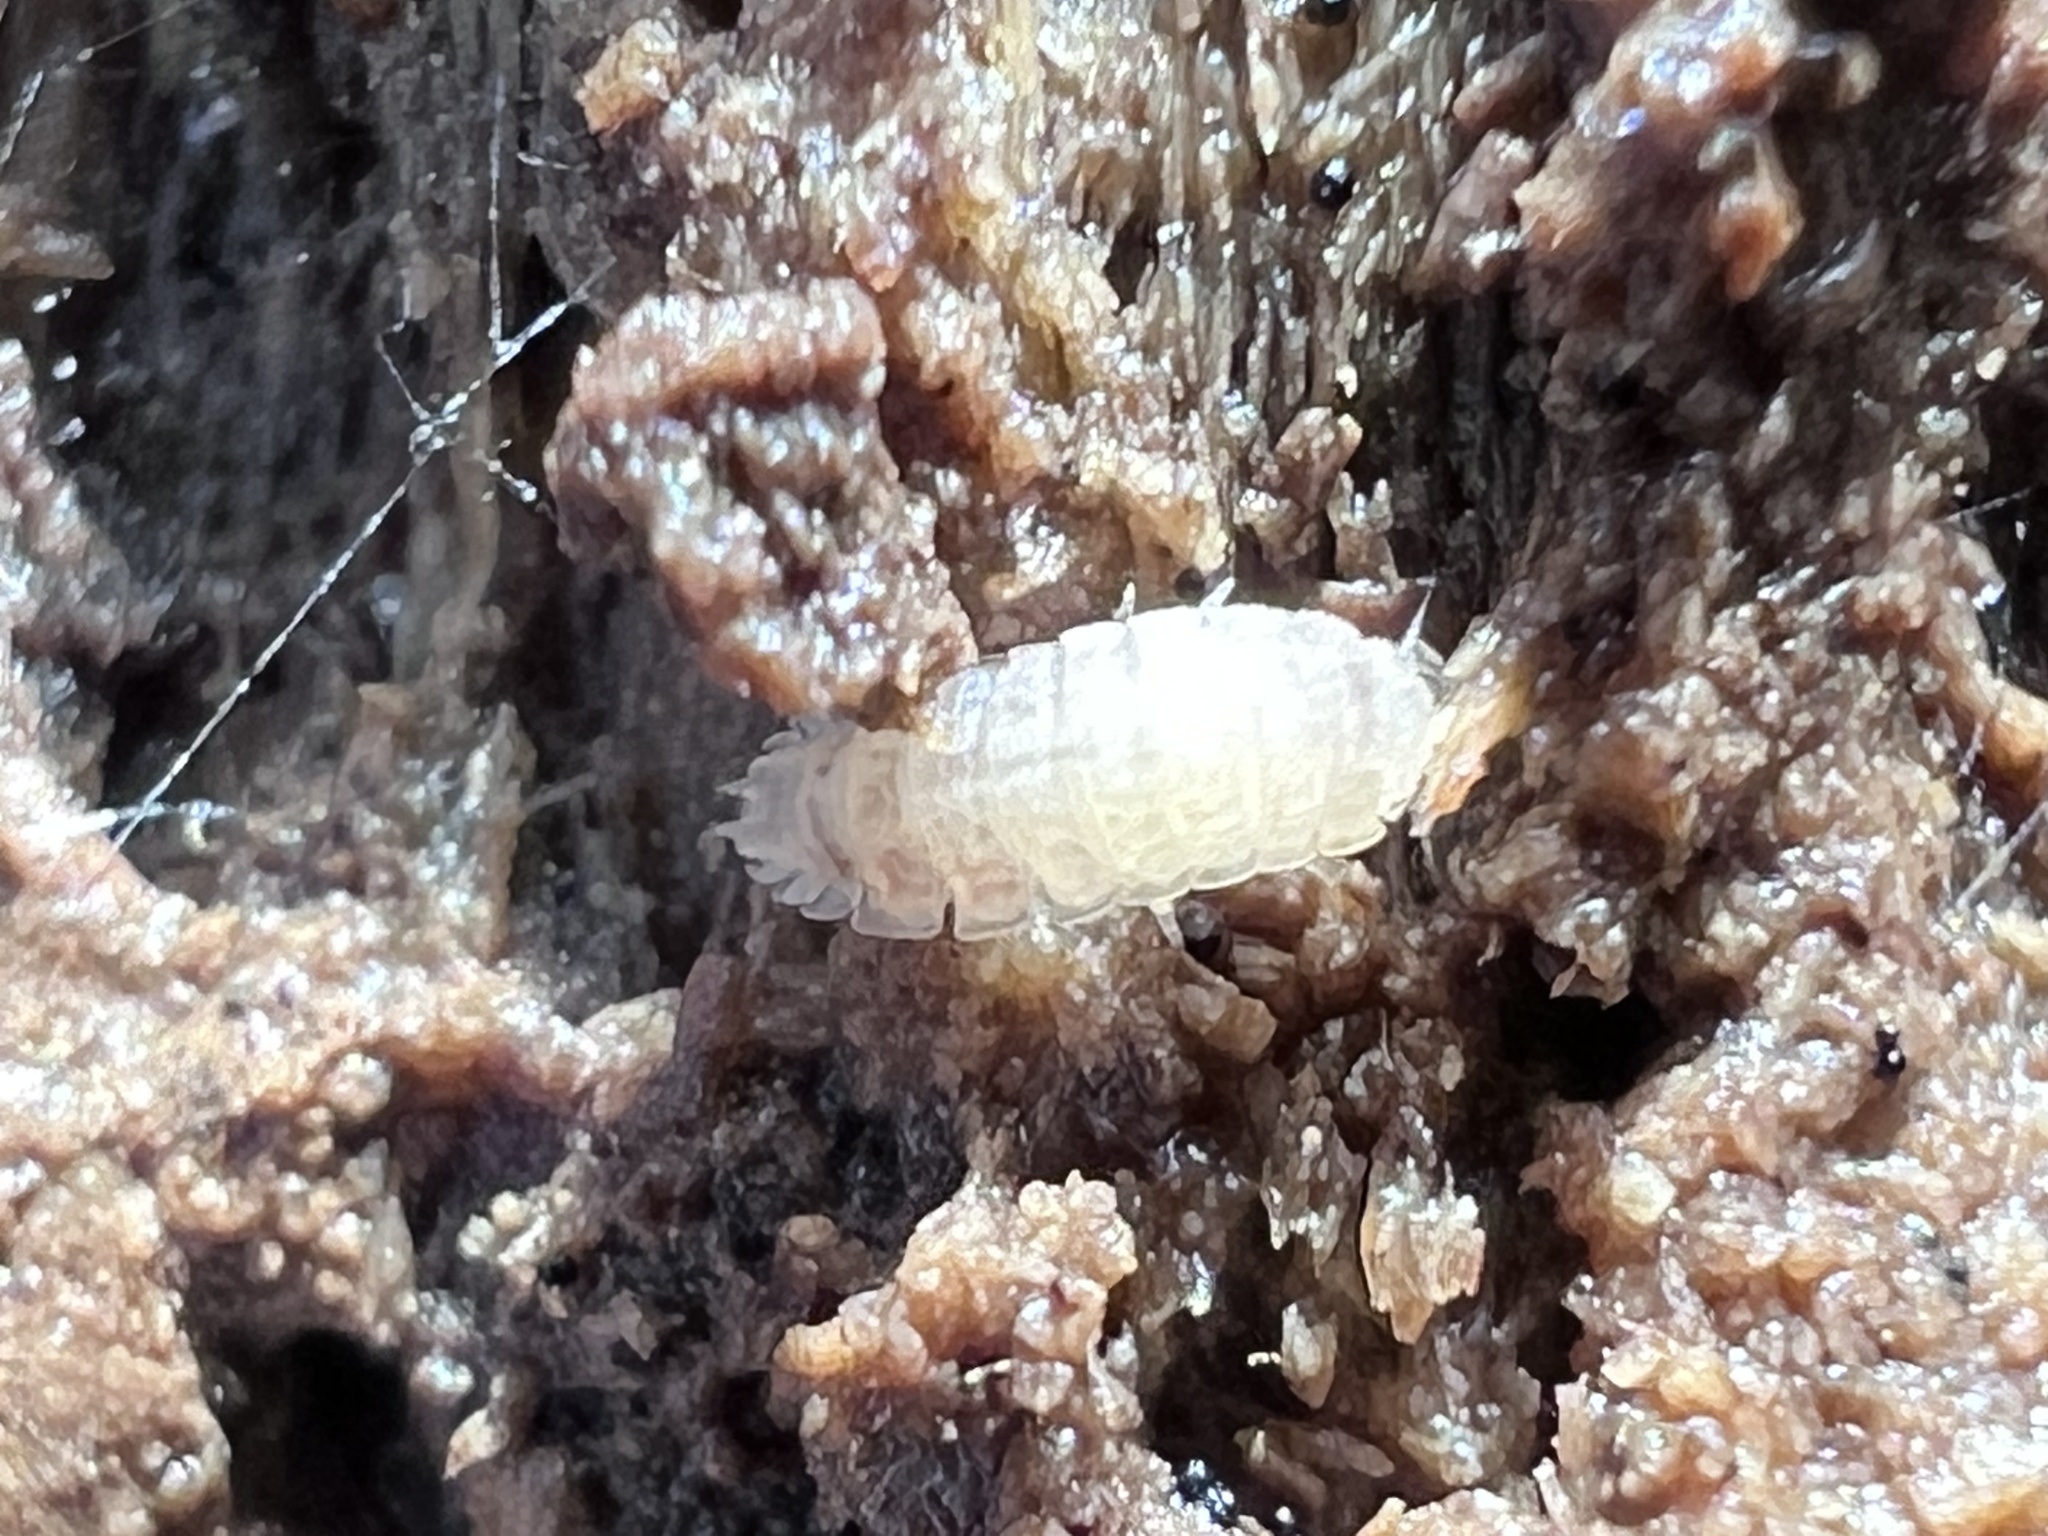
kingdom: Animalia
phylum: Arthropoda
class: Malacostraca
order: Isopoda
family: Trichoniscidae
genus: Haplophthalmus
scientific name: Haplophthalmus danicus
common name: Pillbug
